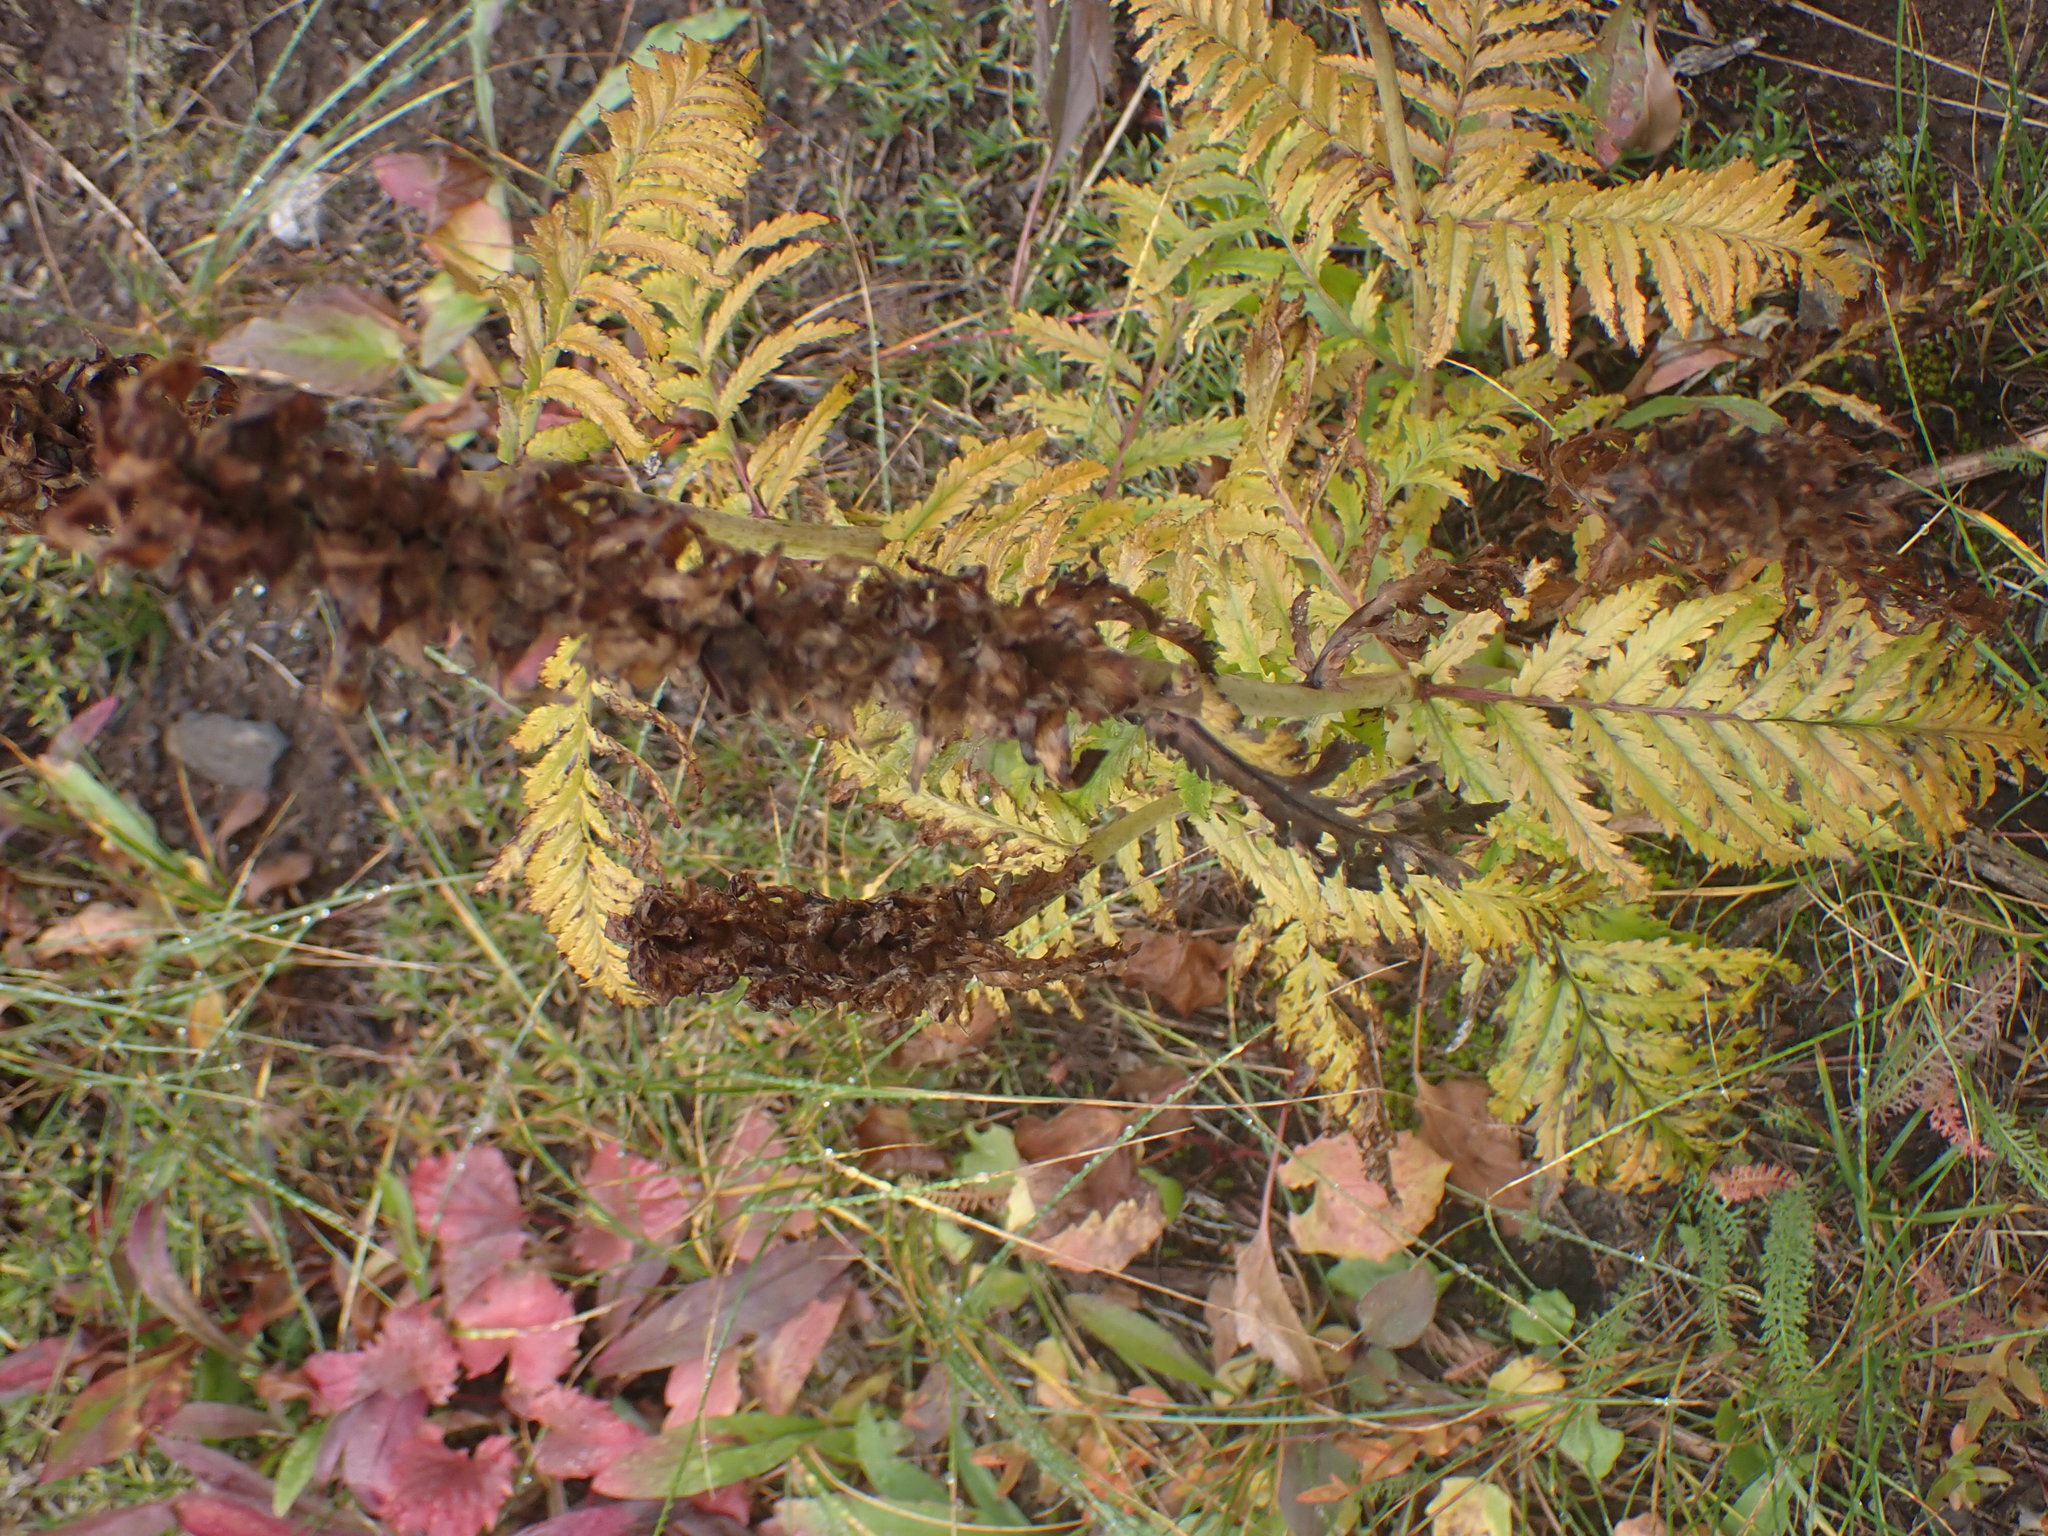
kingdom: Plantae
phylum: Tracheophyta
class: Magnoliopsida
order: Ranunculales
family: Ranunculaceae
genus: Pulsatilla
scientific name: Pulsatilla occidentalis
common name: Mountain pasqueflower
